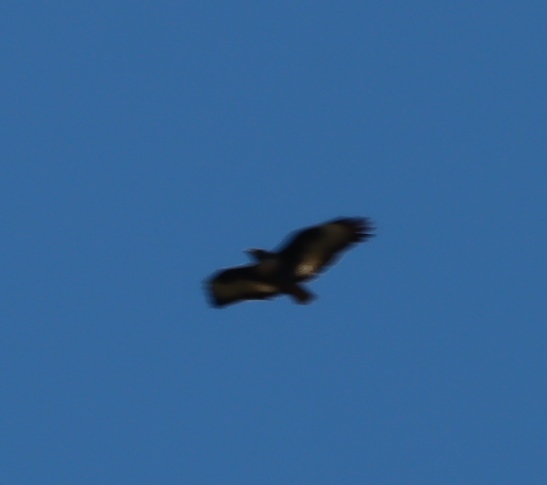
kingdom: Animalia
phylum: Chordata
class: Aves
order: Accipitriformes
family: Accipitridae
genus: Buteo
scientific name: Buteo rufofuscus
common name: Jackal buzzard
